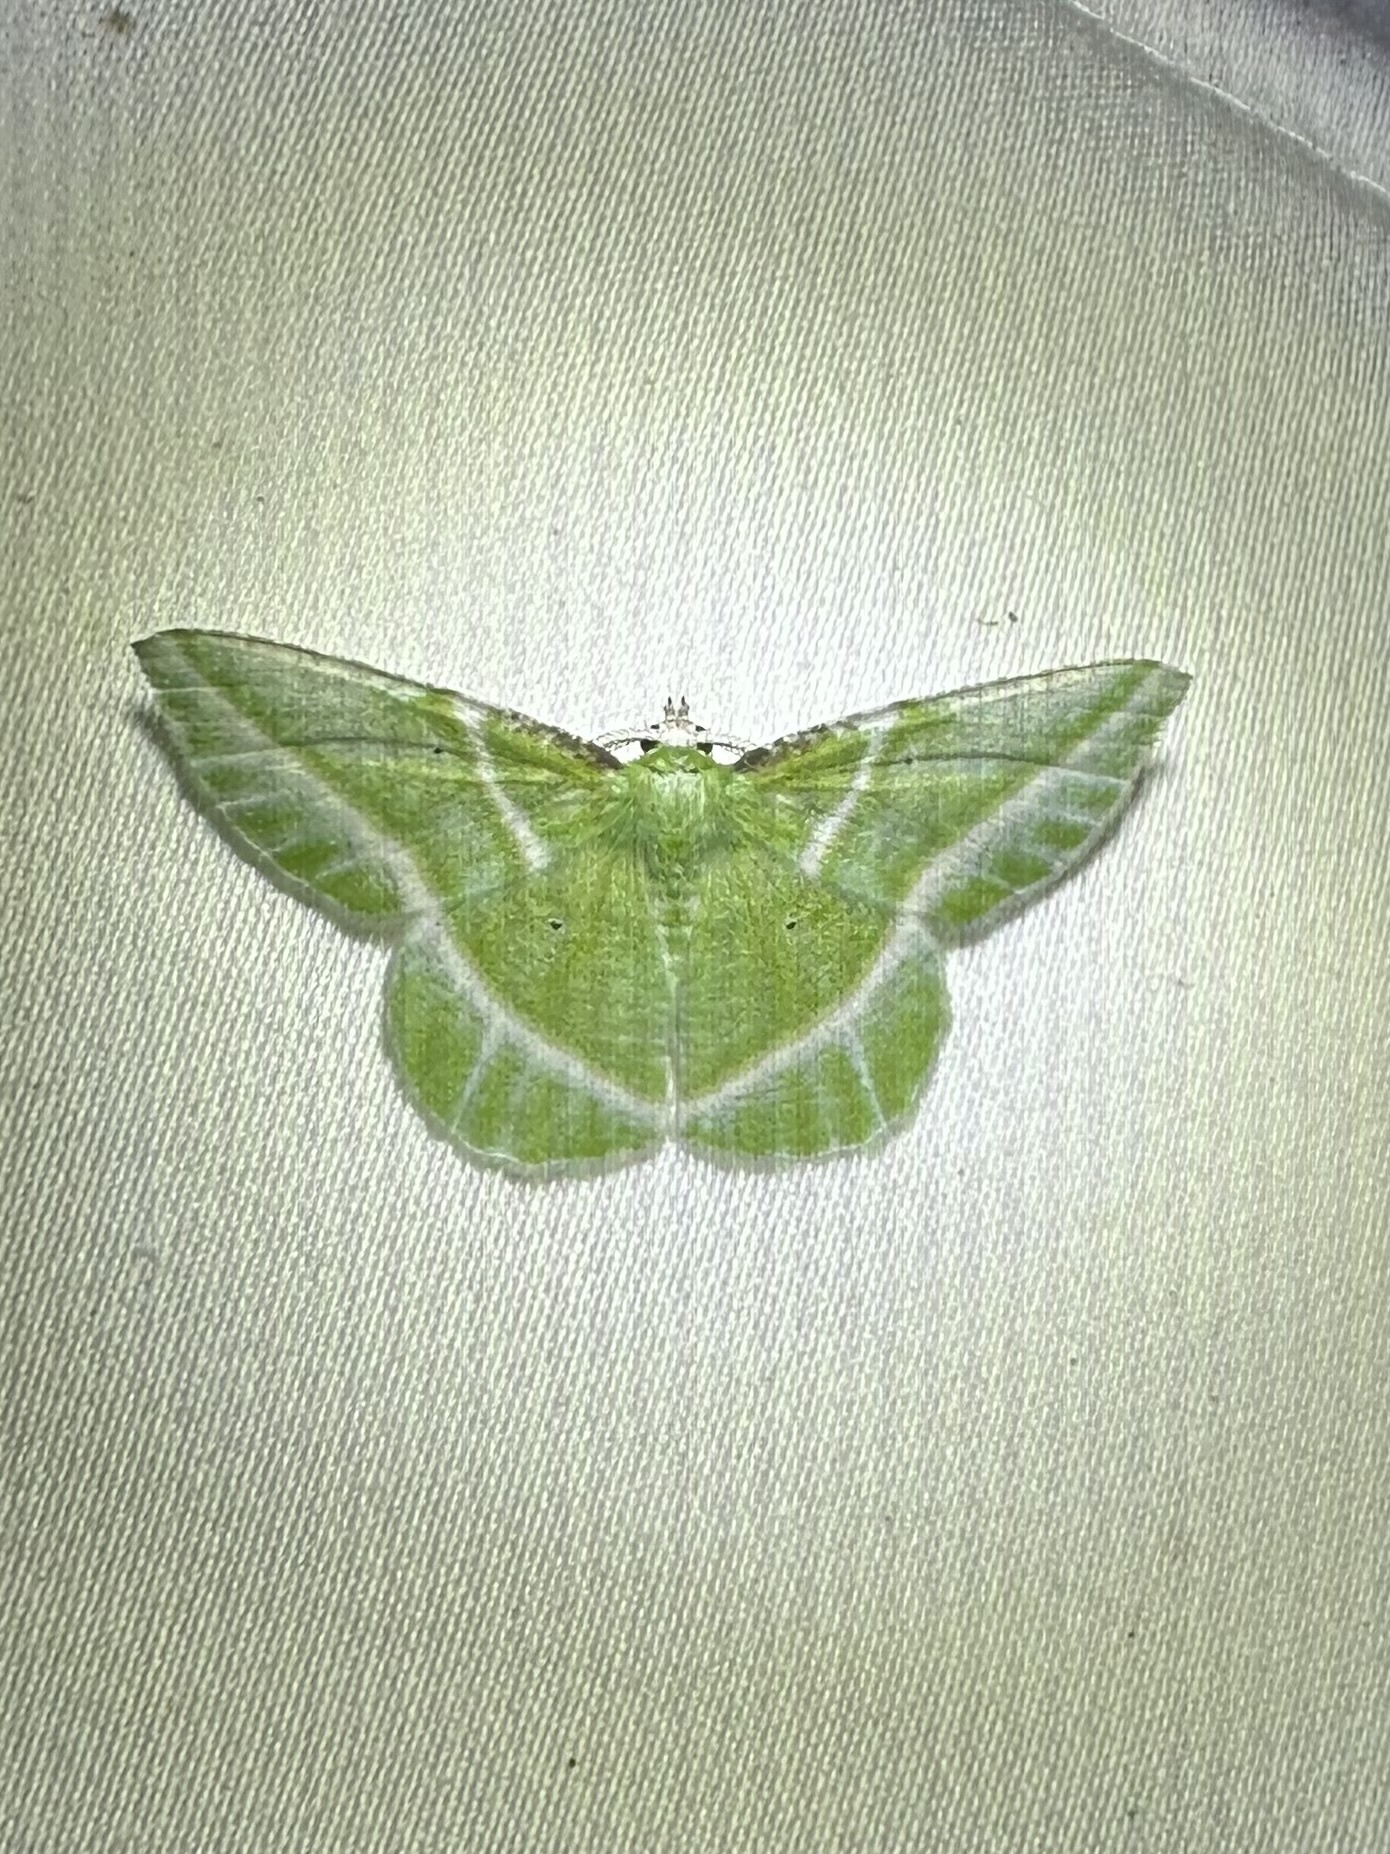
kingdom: Animalia
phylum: Arthropoda
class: Insecta
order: Lepidoptera
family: Geometridae
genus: Dichorda
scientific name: Dichorda iridaria
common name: Showy emerald
